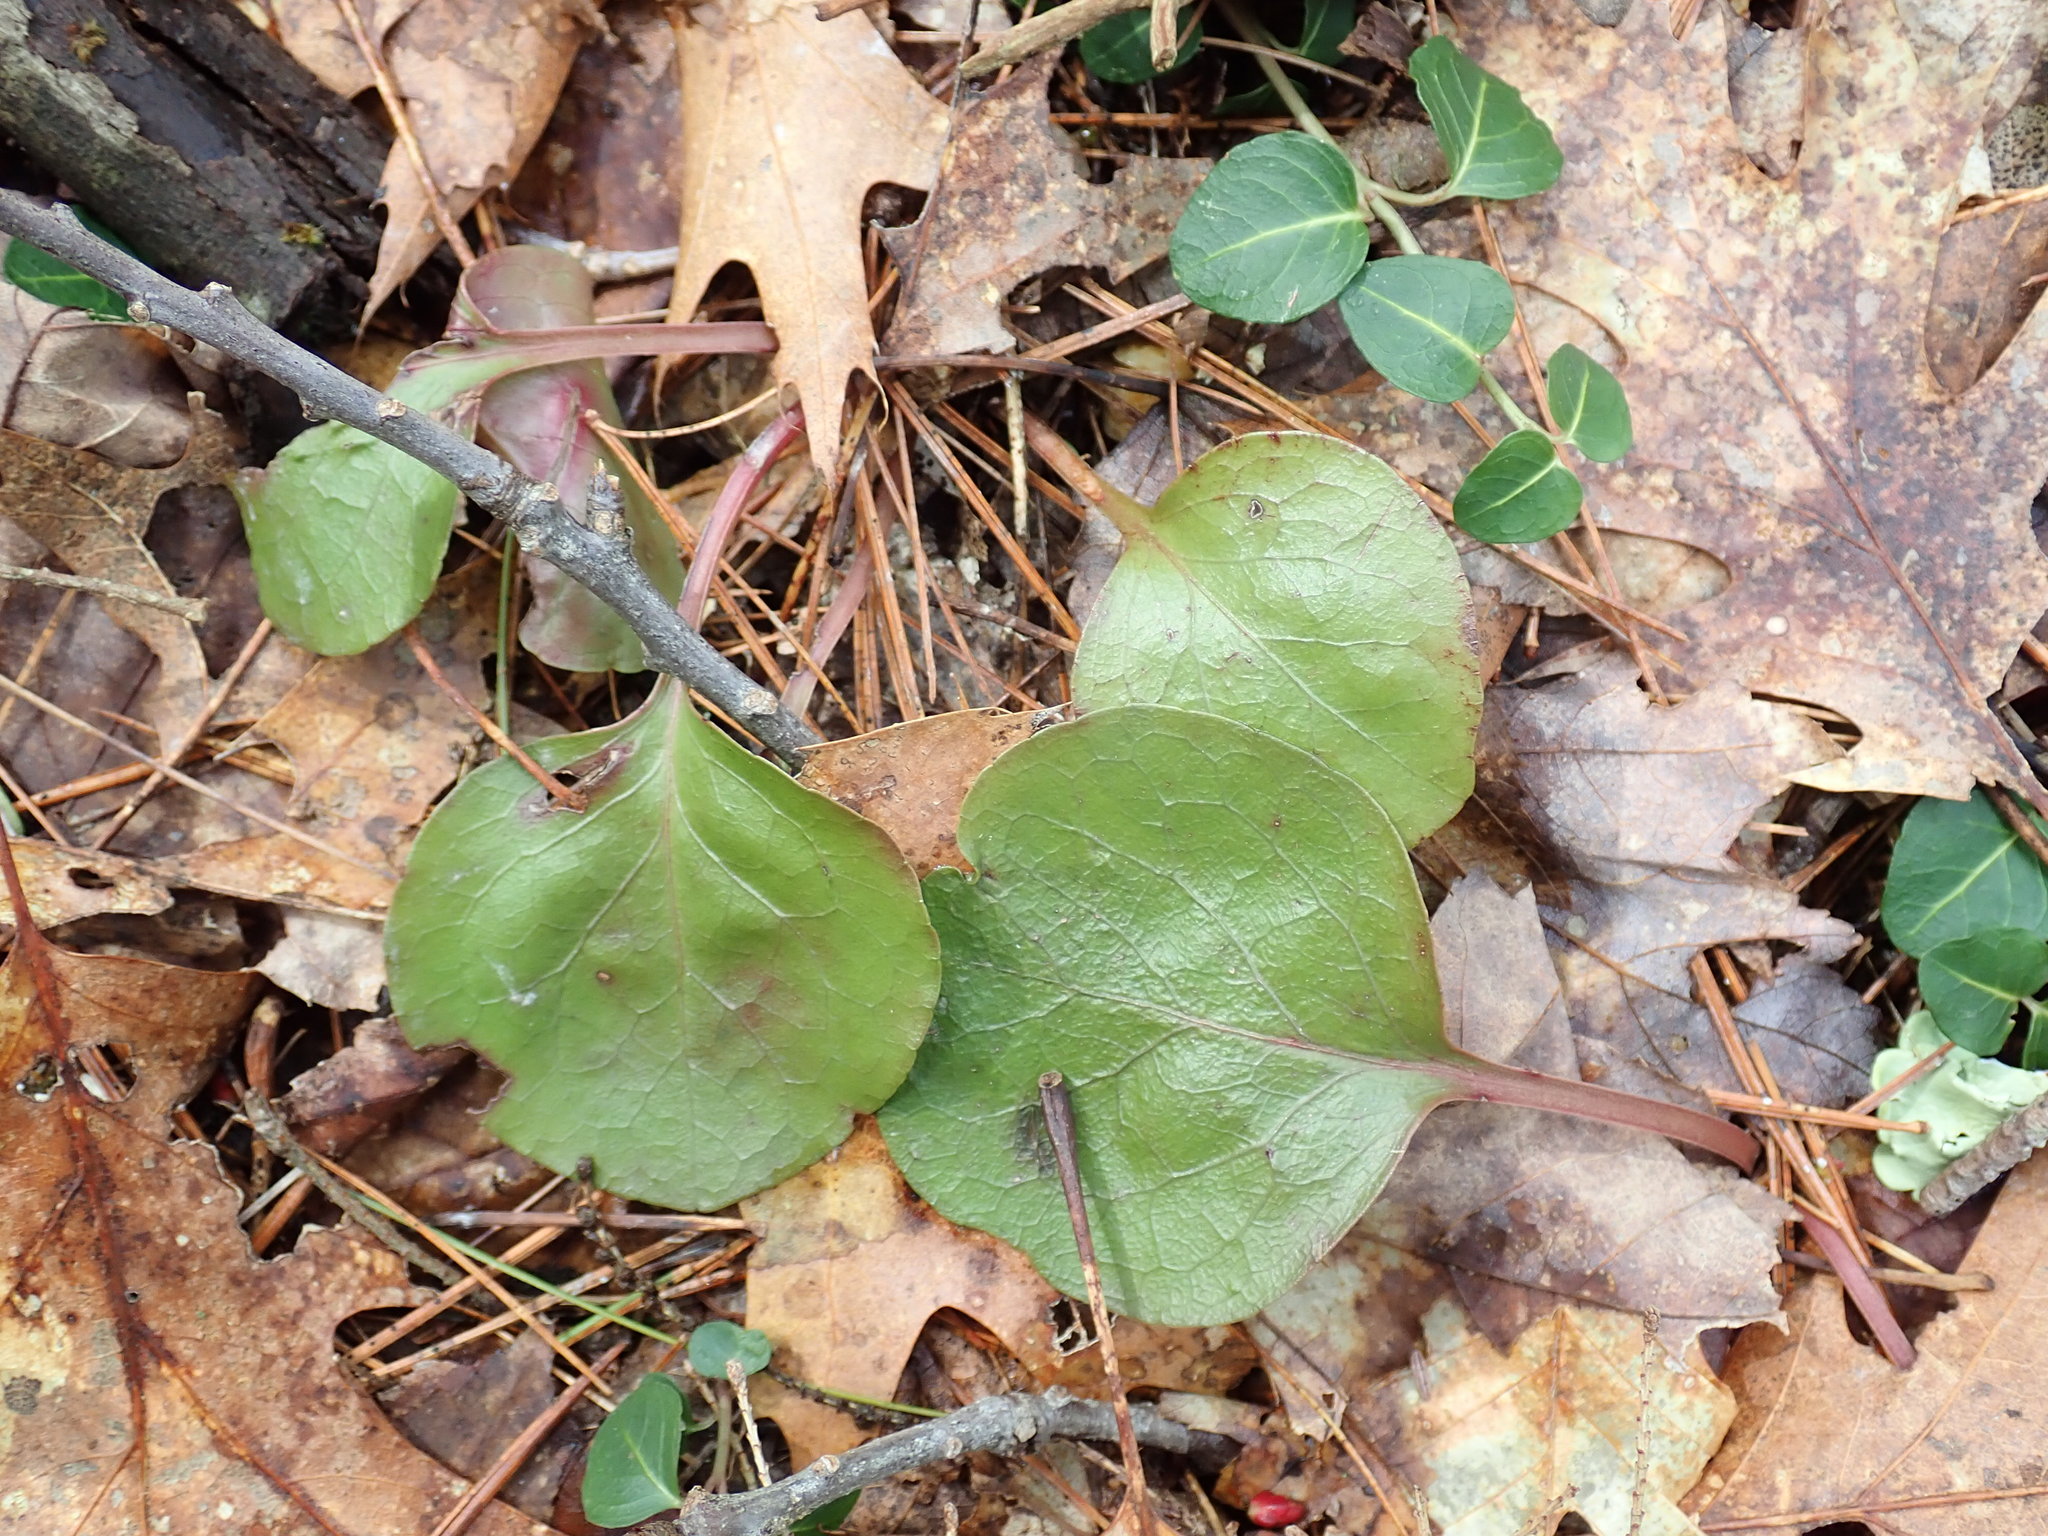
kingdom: Plantae
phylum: Tracheophyta
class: Magnoliopsida
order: Ericales
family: Ericaceae
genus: Pyrola
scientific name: Pyrola americana
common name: American wintergreen
